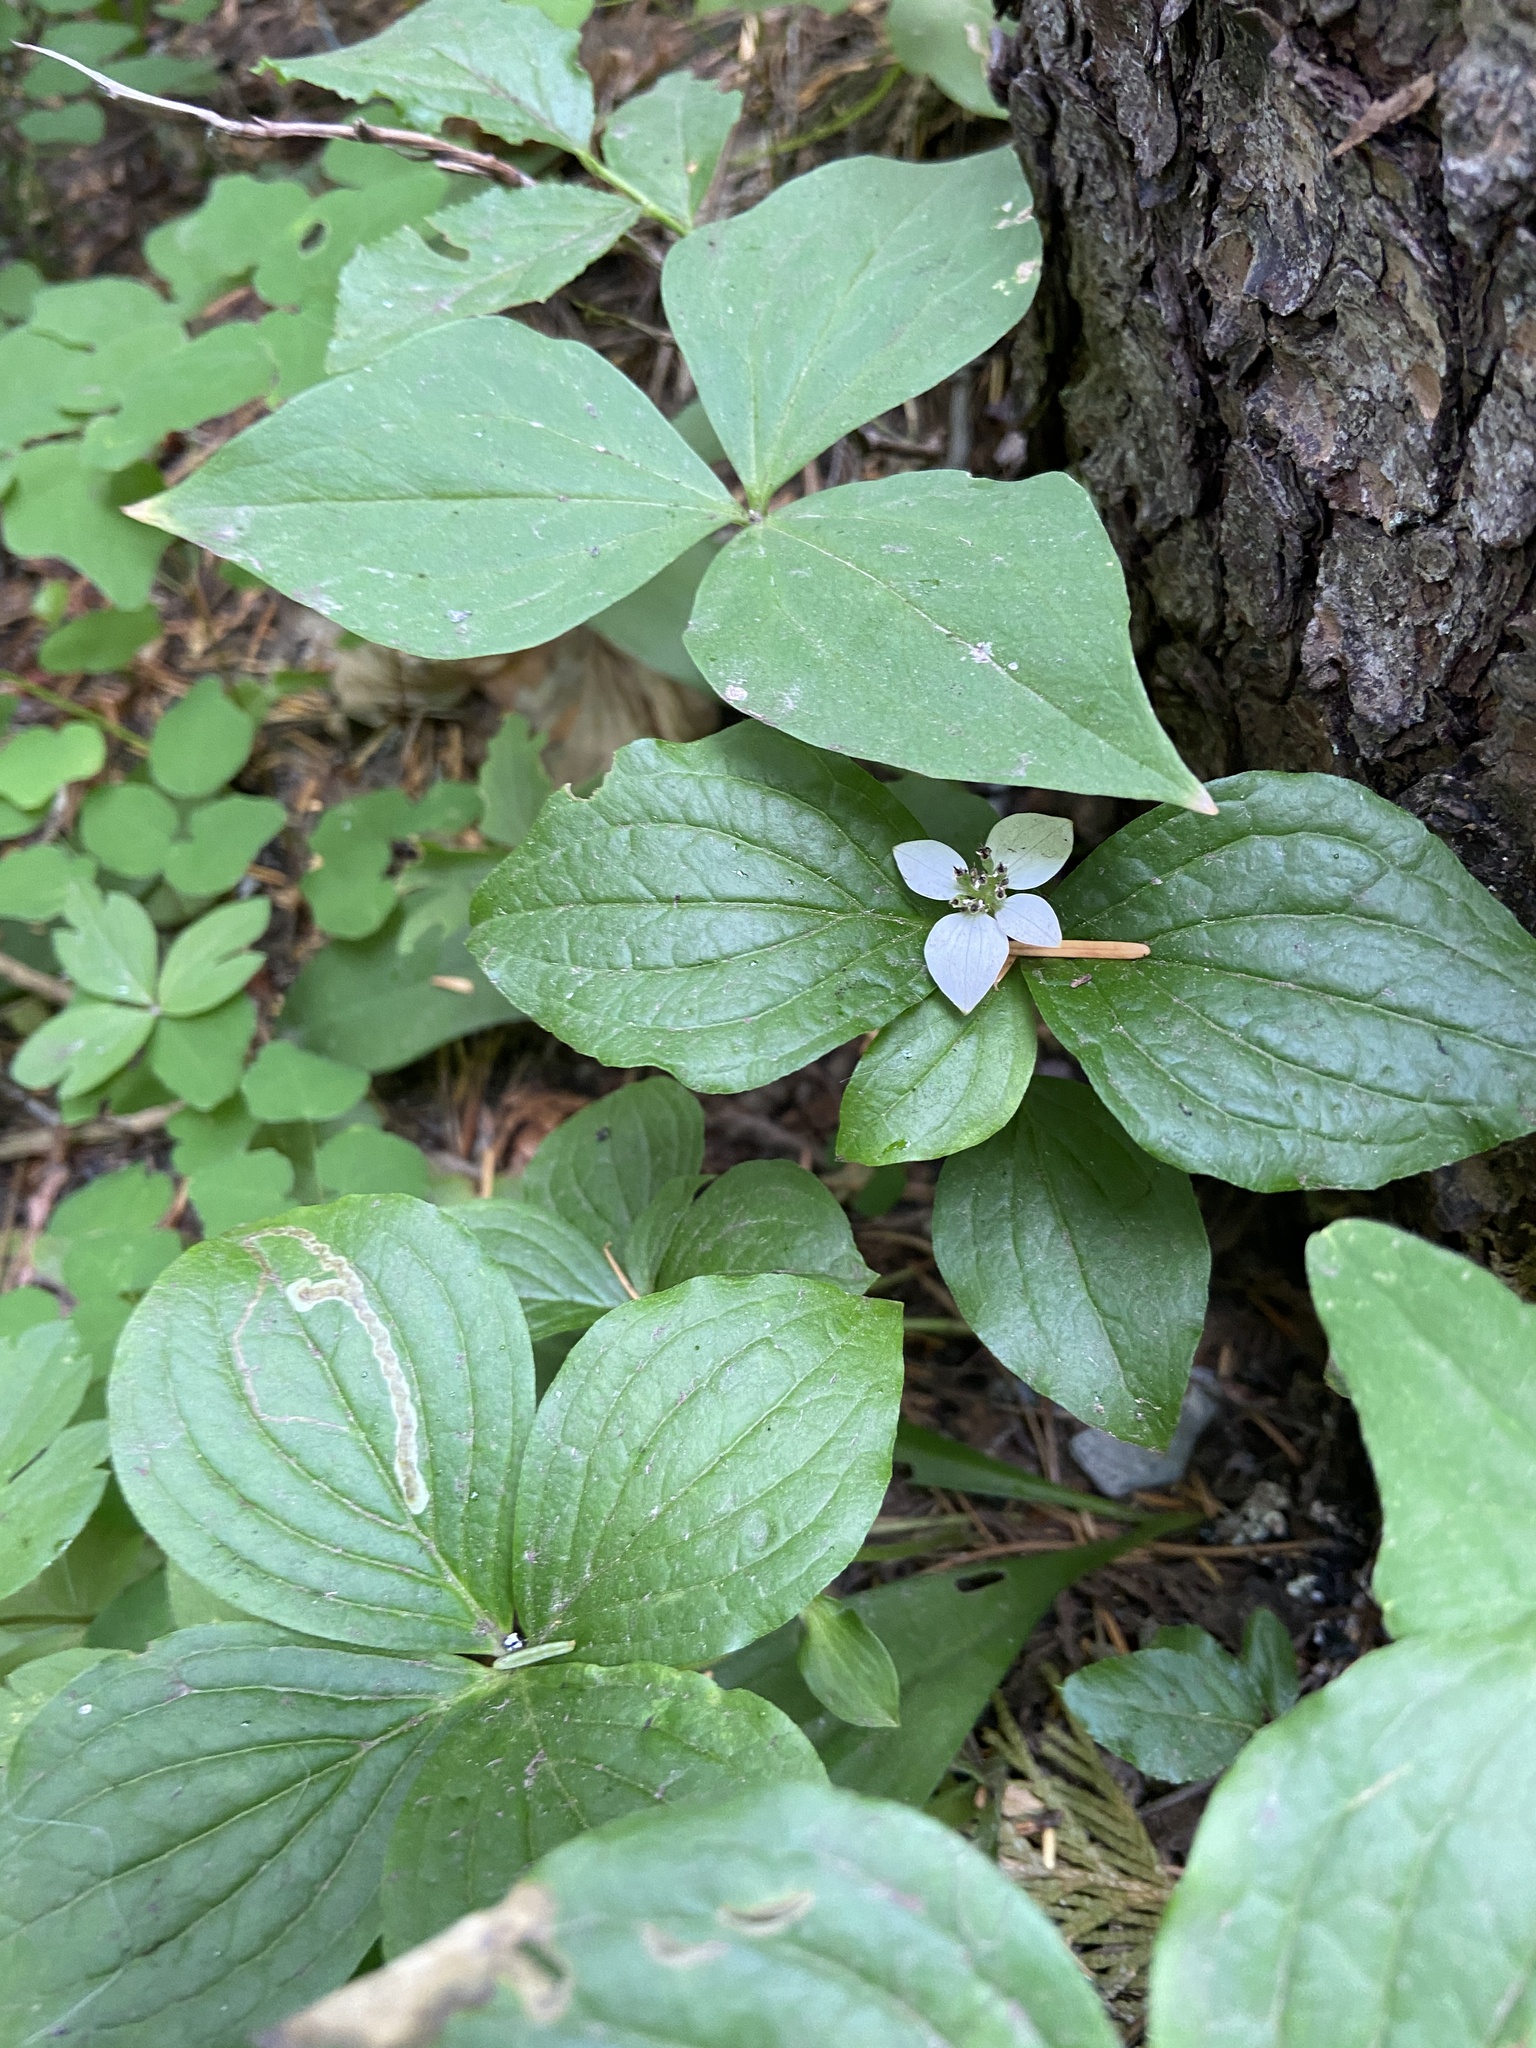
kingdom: Plantae
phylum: Tracheophyta
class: Magnoliopsida
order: Cornales
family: Cornaceae
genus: Cornus
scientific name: Cornus unalaschkensis
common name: Alaska bunchberry
